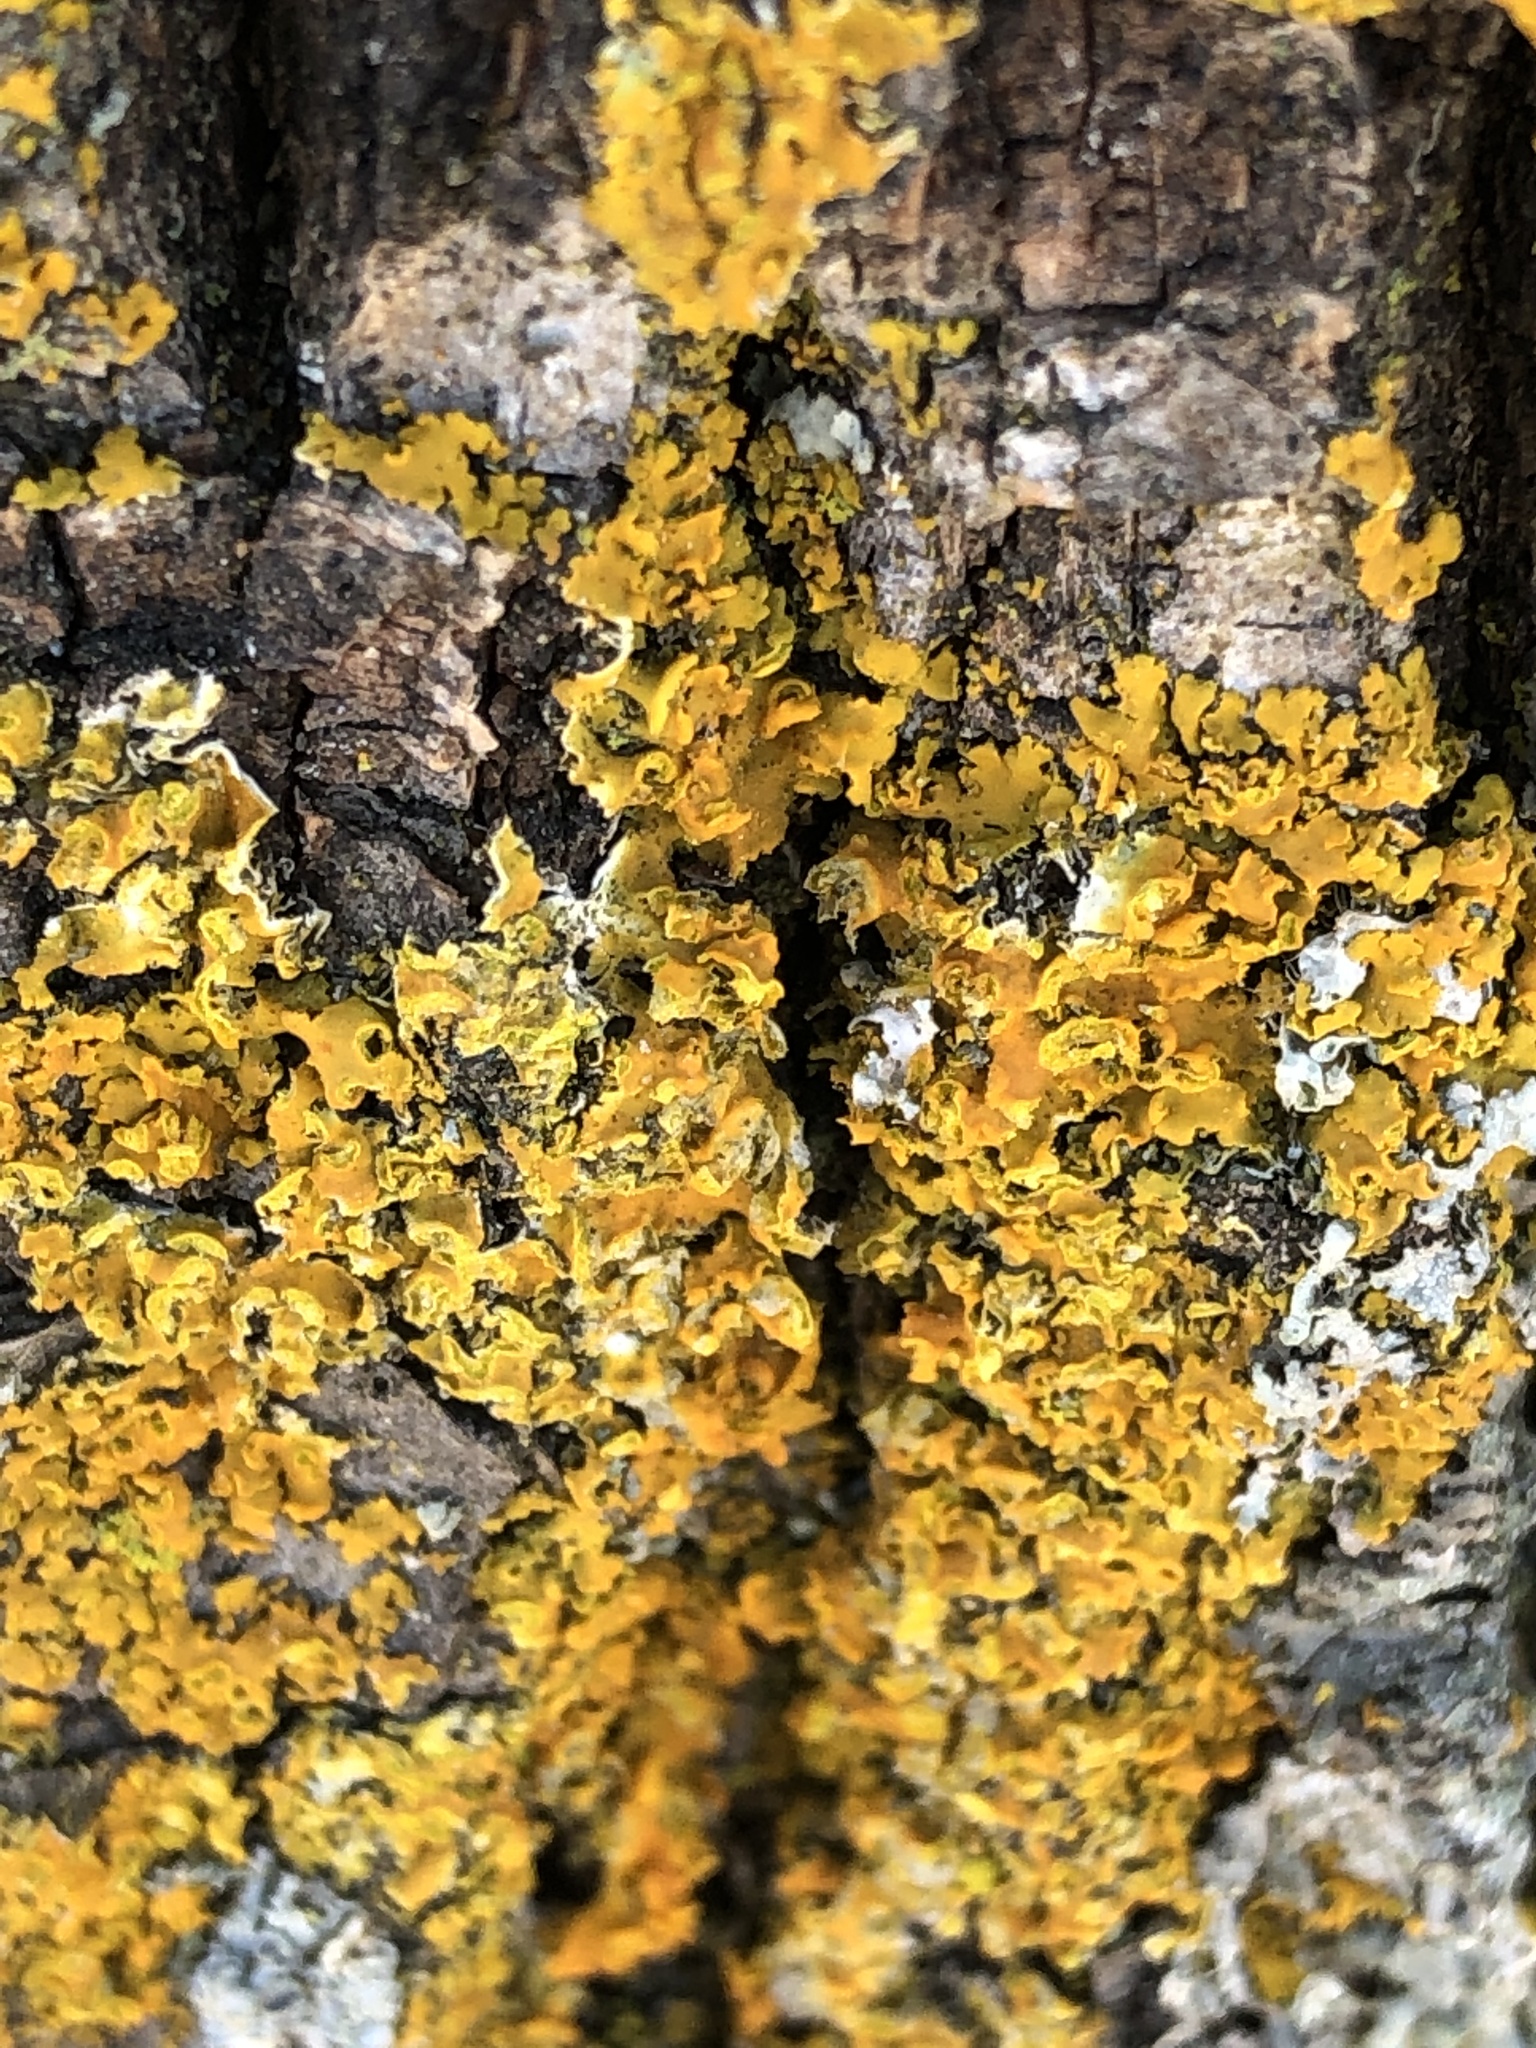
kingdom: Fungi
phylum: Ascomycota
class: Lecanoromycetes
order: Teloschistales
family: Teloschistaceae
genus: Oxneria
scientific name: Oxneria fallax
